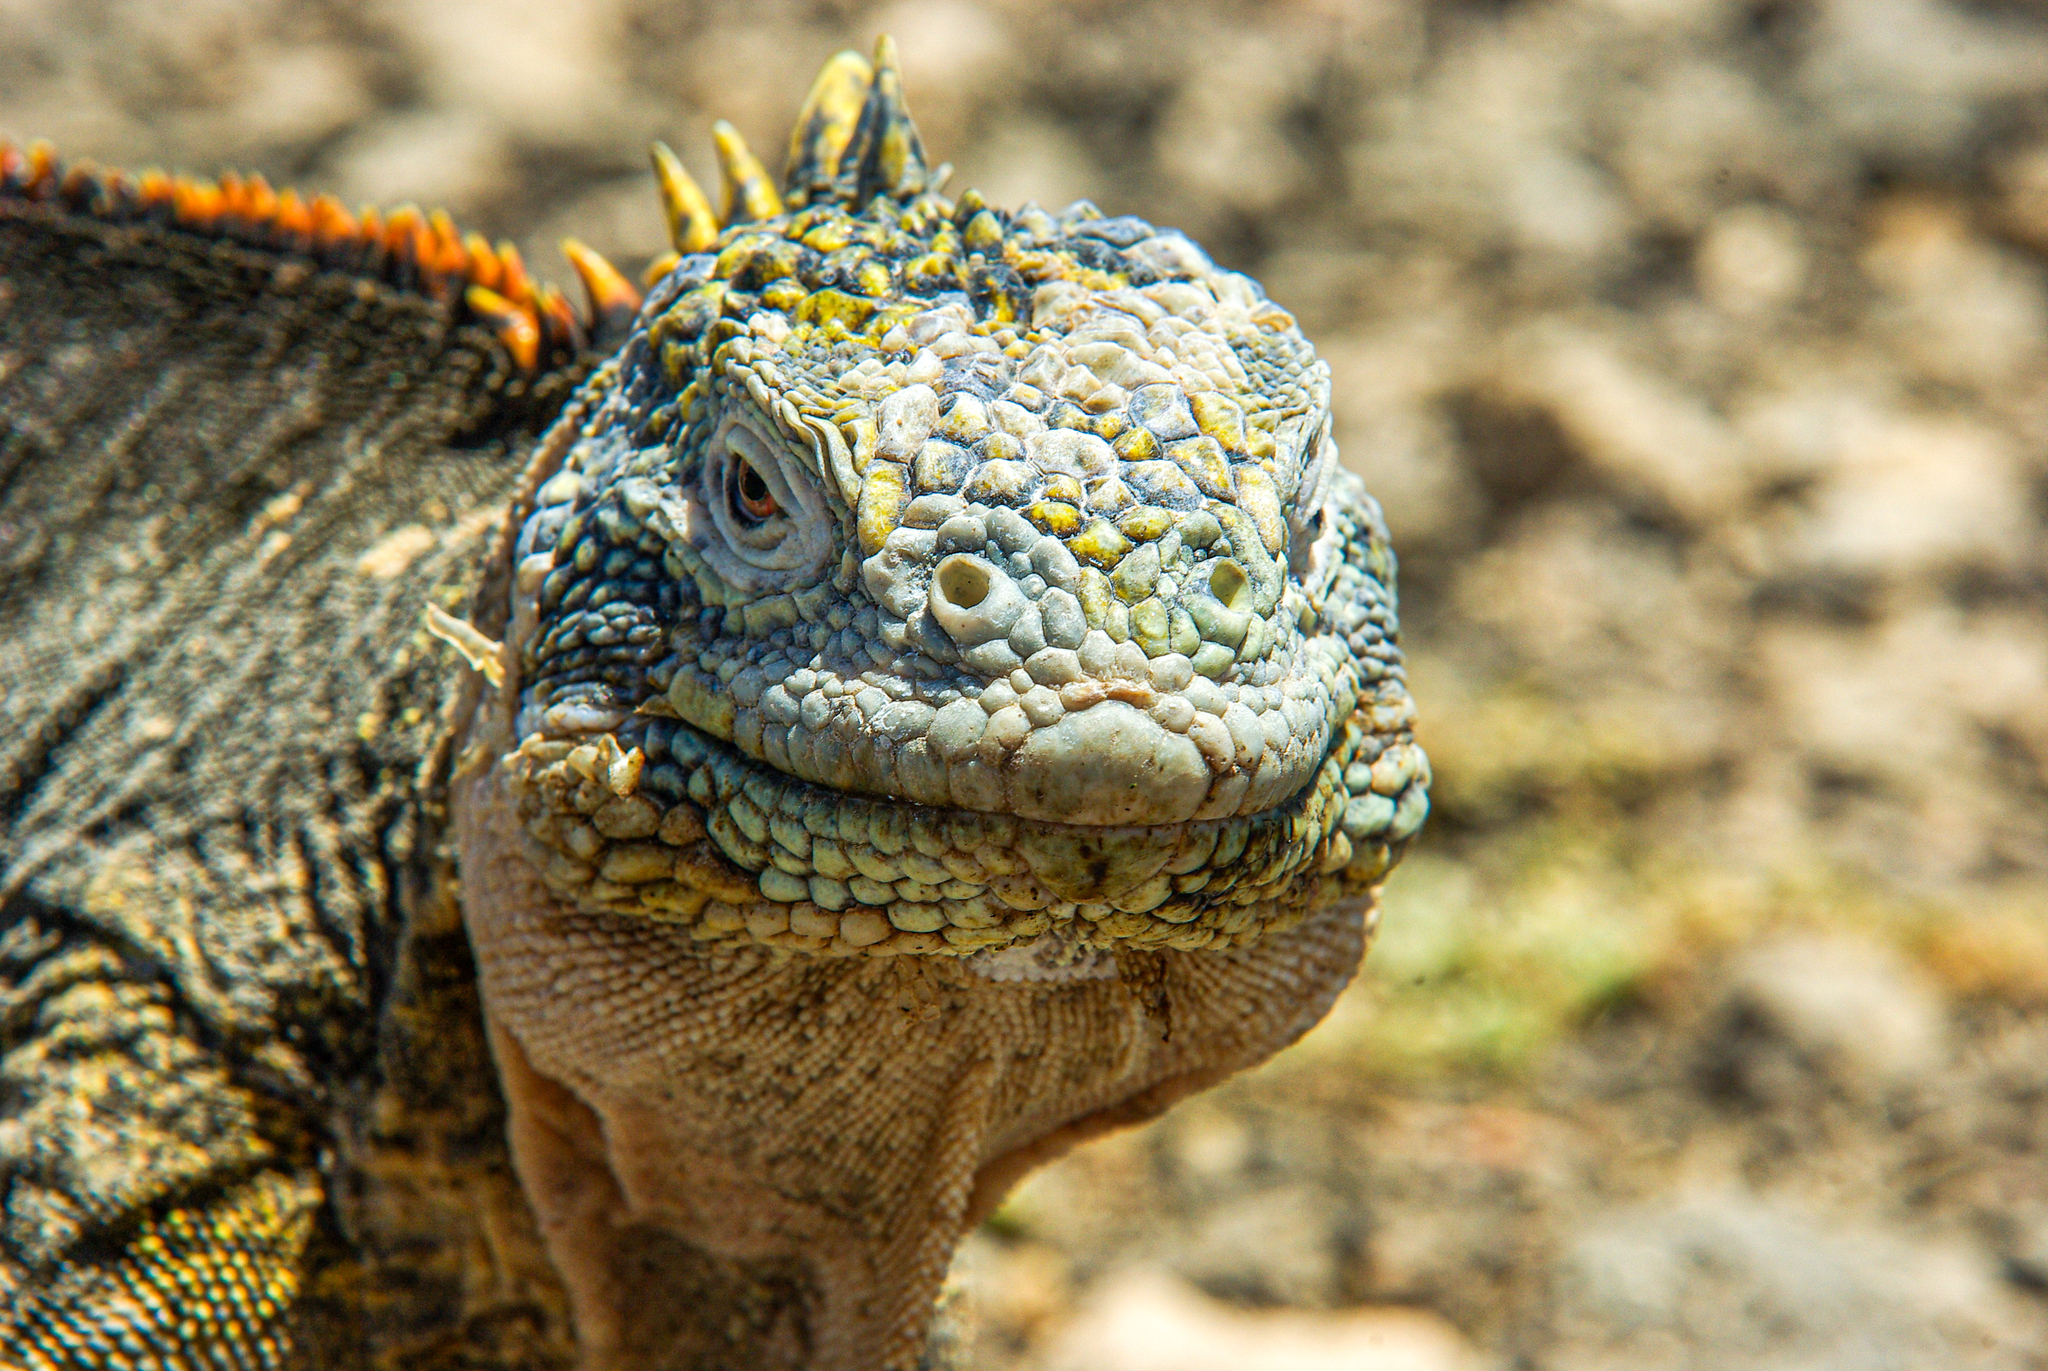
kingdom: Animalia
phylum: Chordata
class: Squamata
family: Iguanidae
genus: Conolophus
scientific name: Conolophus subcristatus
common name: Galapagos land iguana
